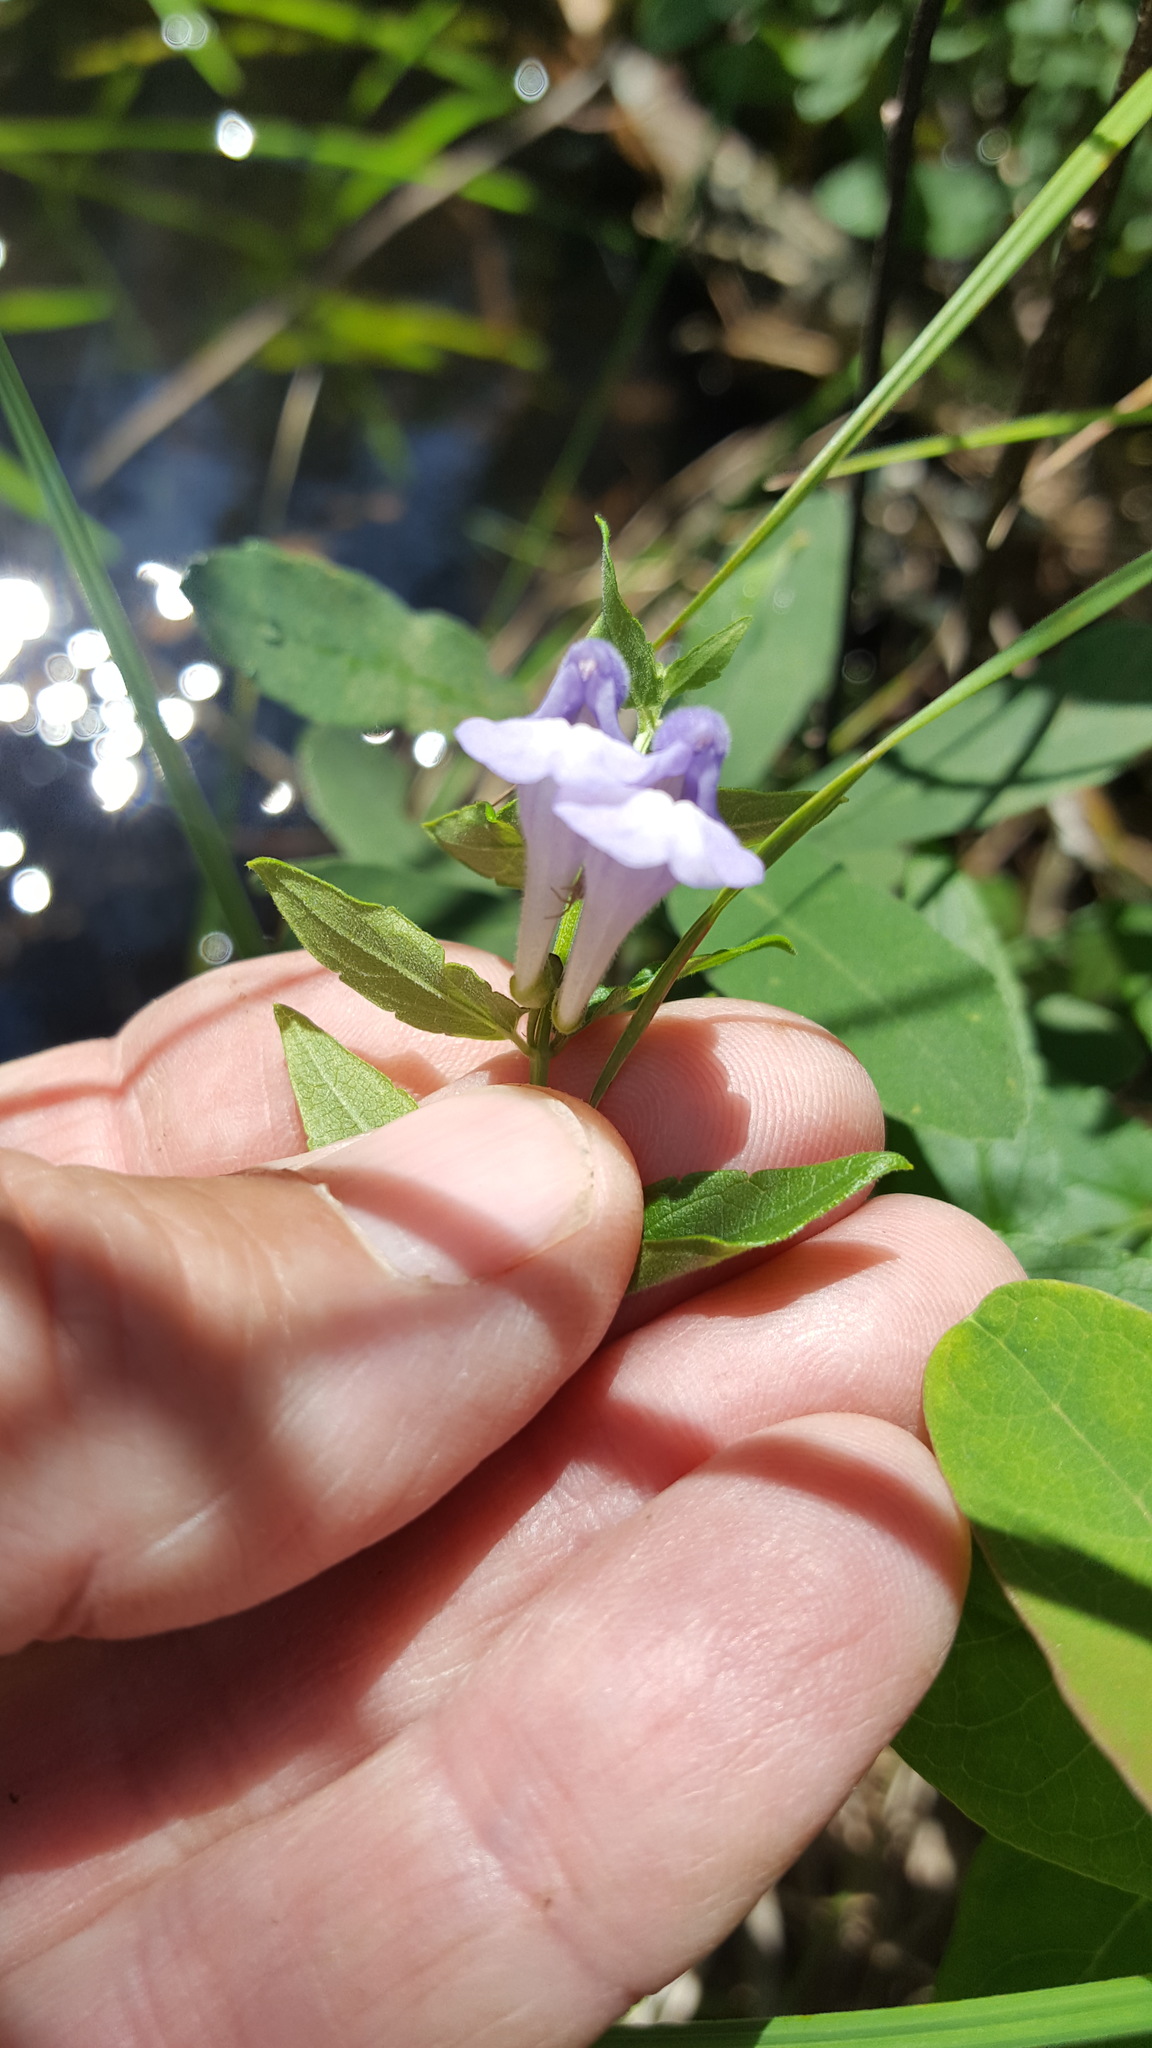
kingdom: Plantae
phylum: Tracheophyta
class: Magnoliopsida
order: Lamiales
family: Lamiaceae
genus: Scutellaria
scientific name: Scutellaria galericulata
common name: Skullcap
